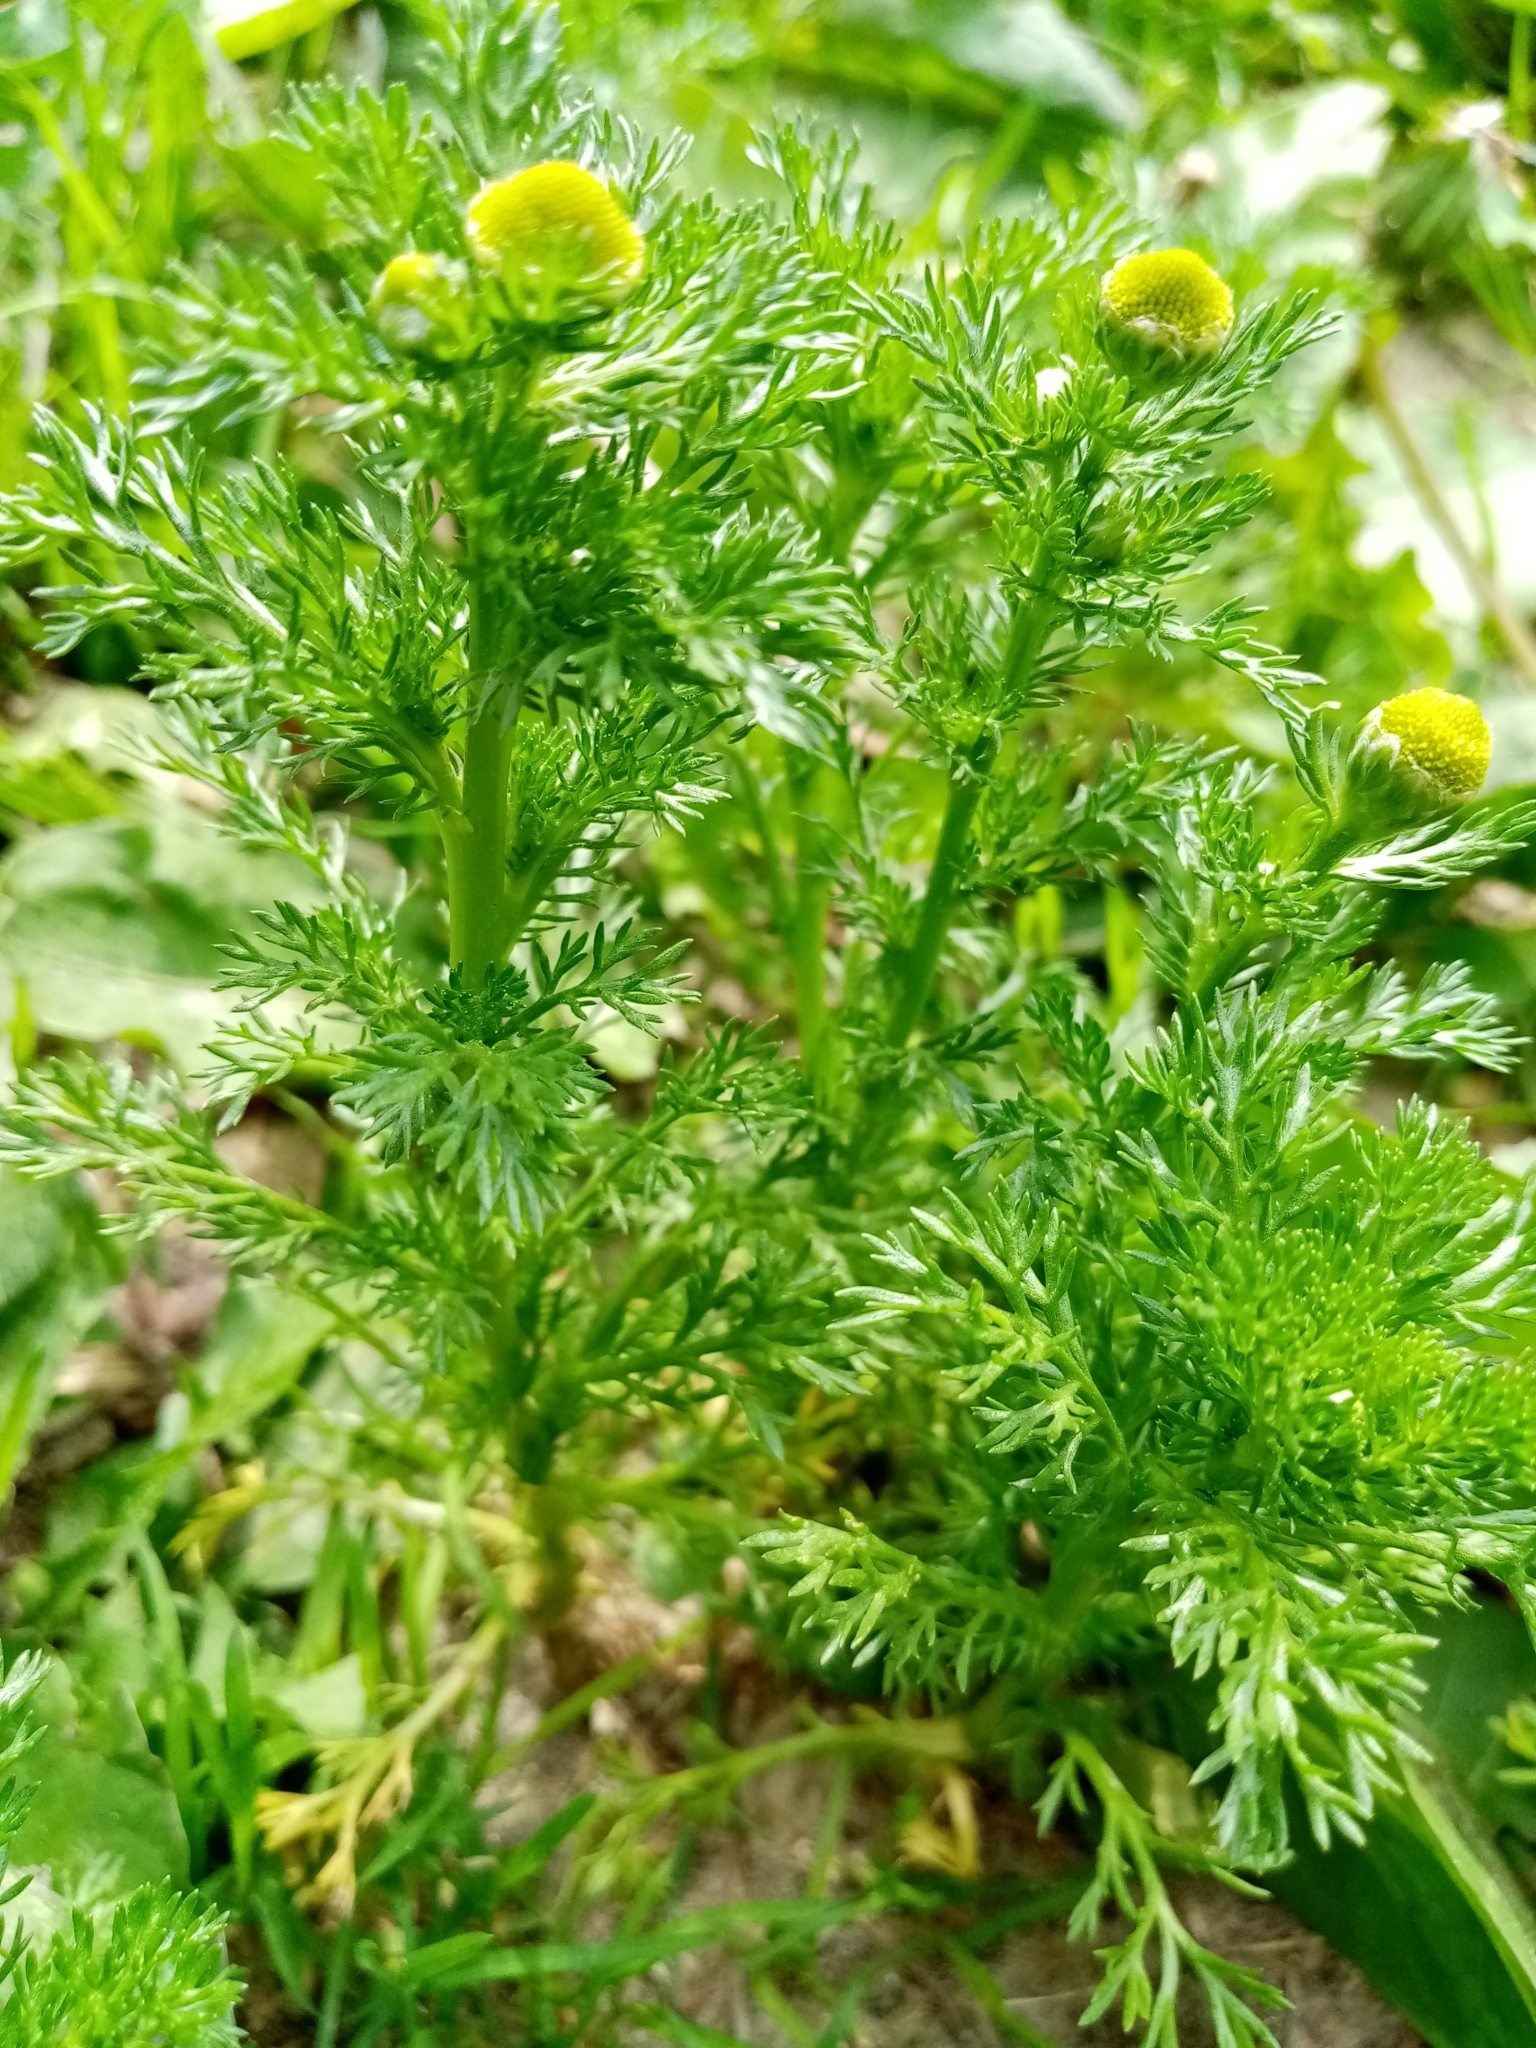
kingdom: Plantae
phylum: Tracheophyta
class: Magnoliopsida
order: Asterales
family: Asteraceae
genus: Matricaria
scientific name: Matricaria discoidea
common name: Disc mayweed
